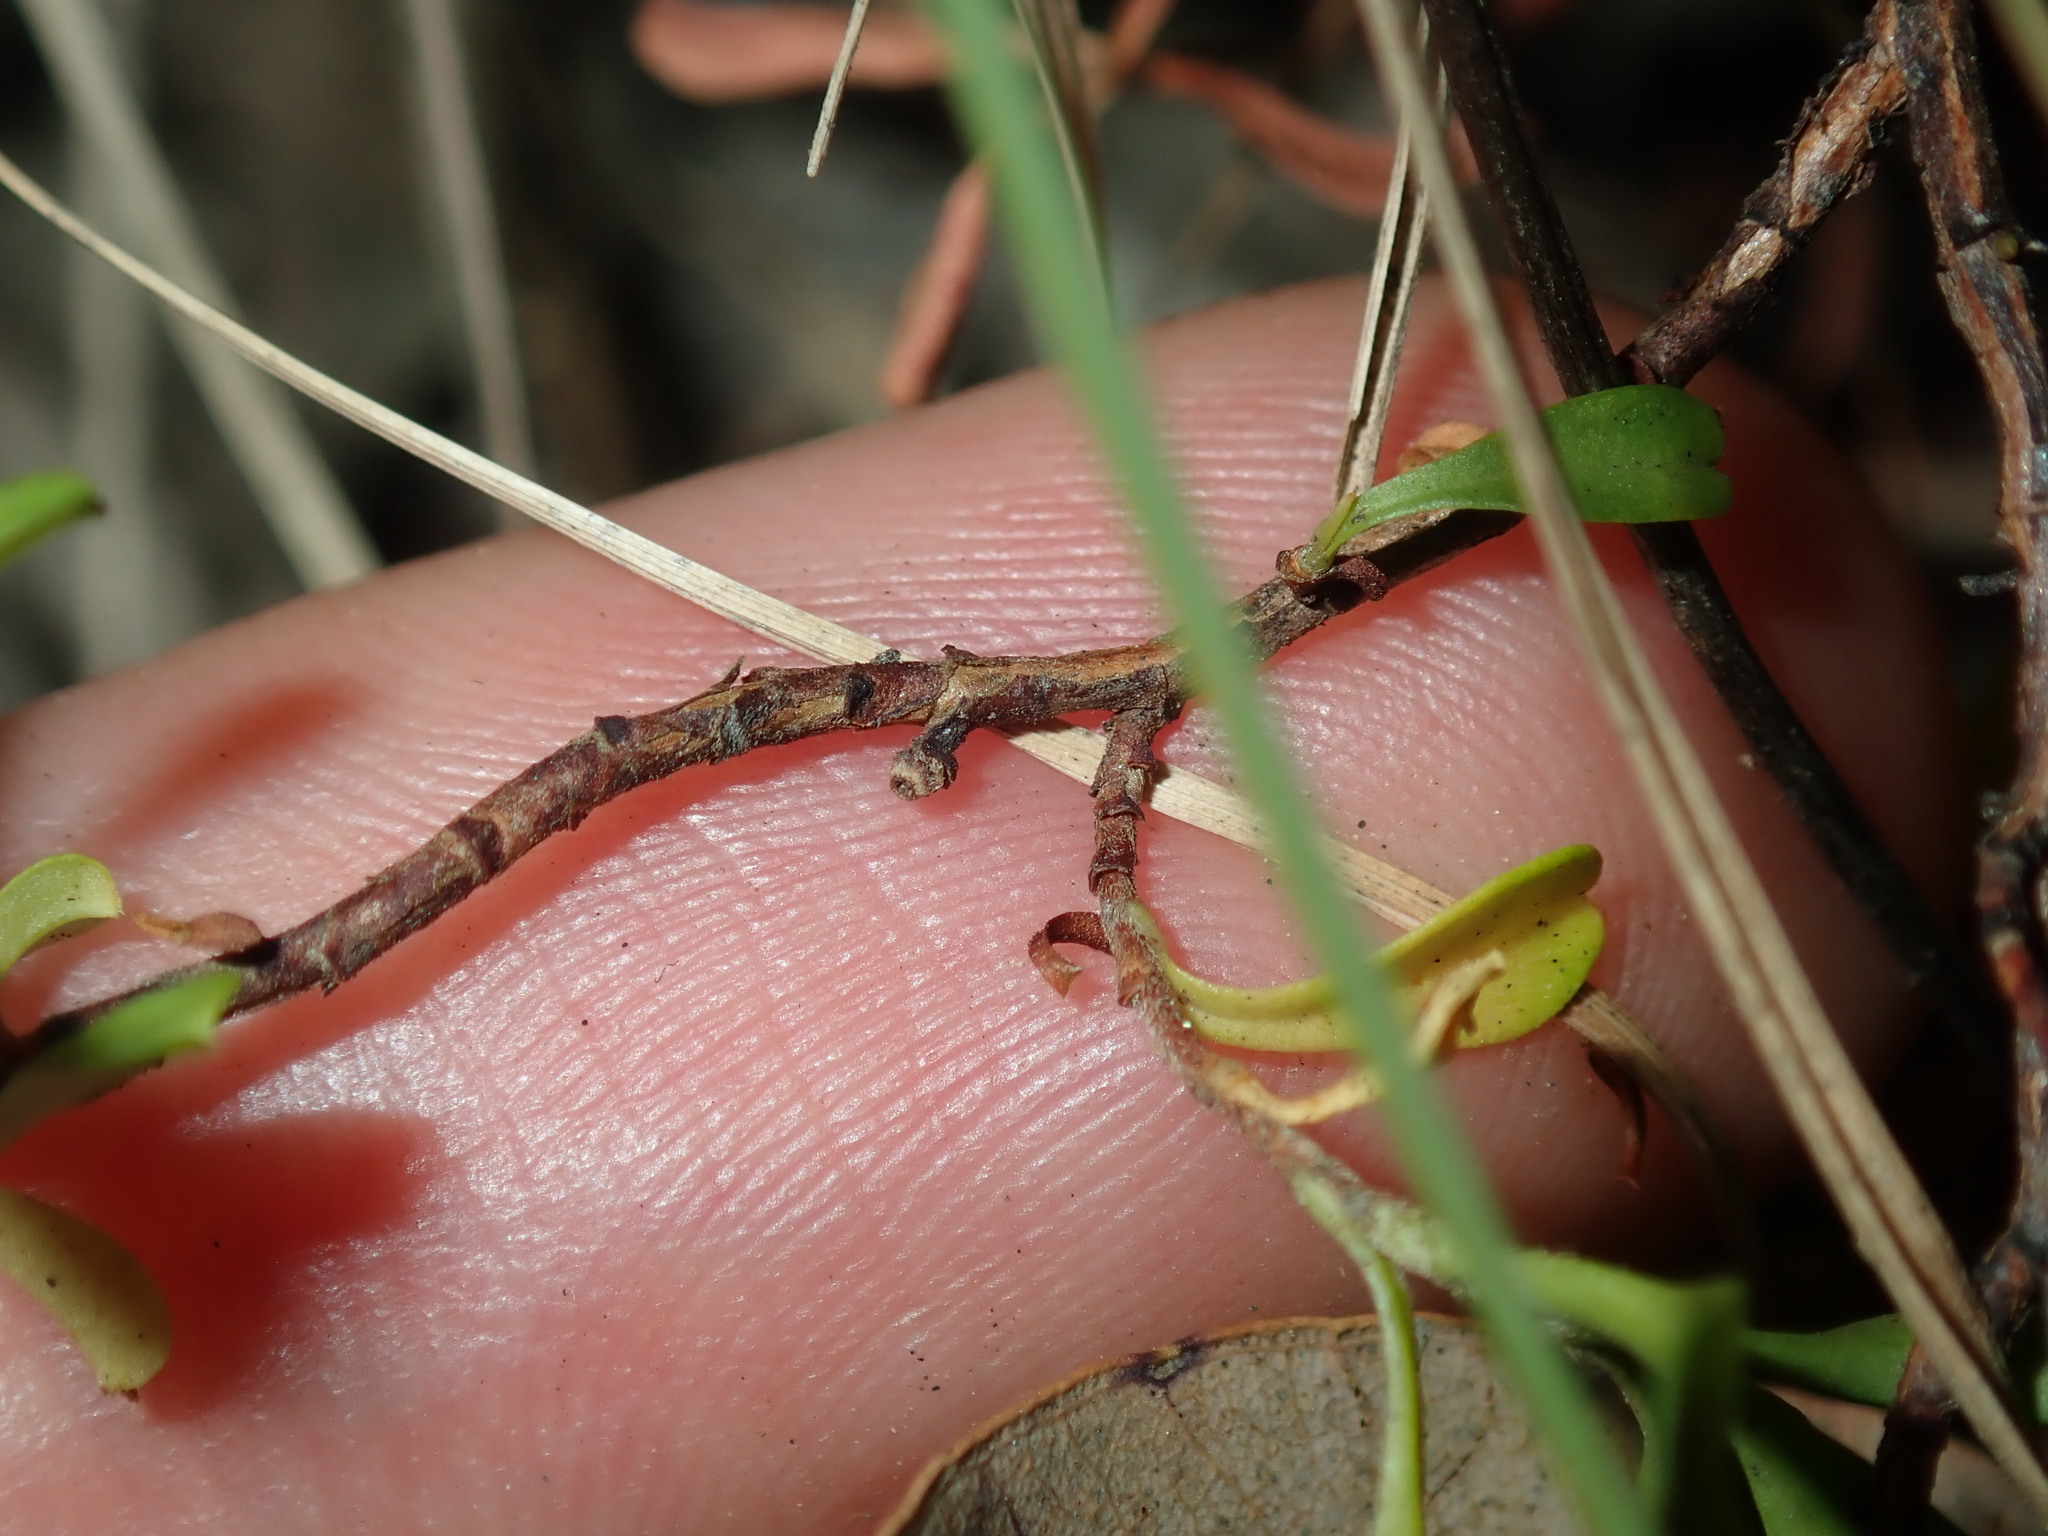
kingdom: Plantae
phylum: Tracheophyta
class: Magnoliopsida
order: Dilleniales
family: Dilleniaceae
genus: Hibbertia
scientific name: Hibbertia diffusa
